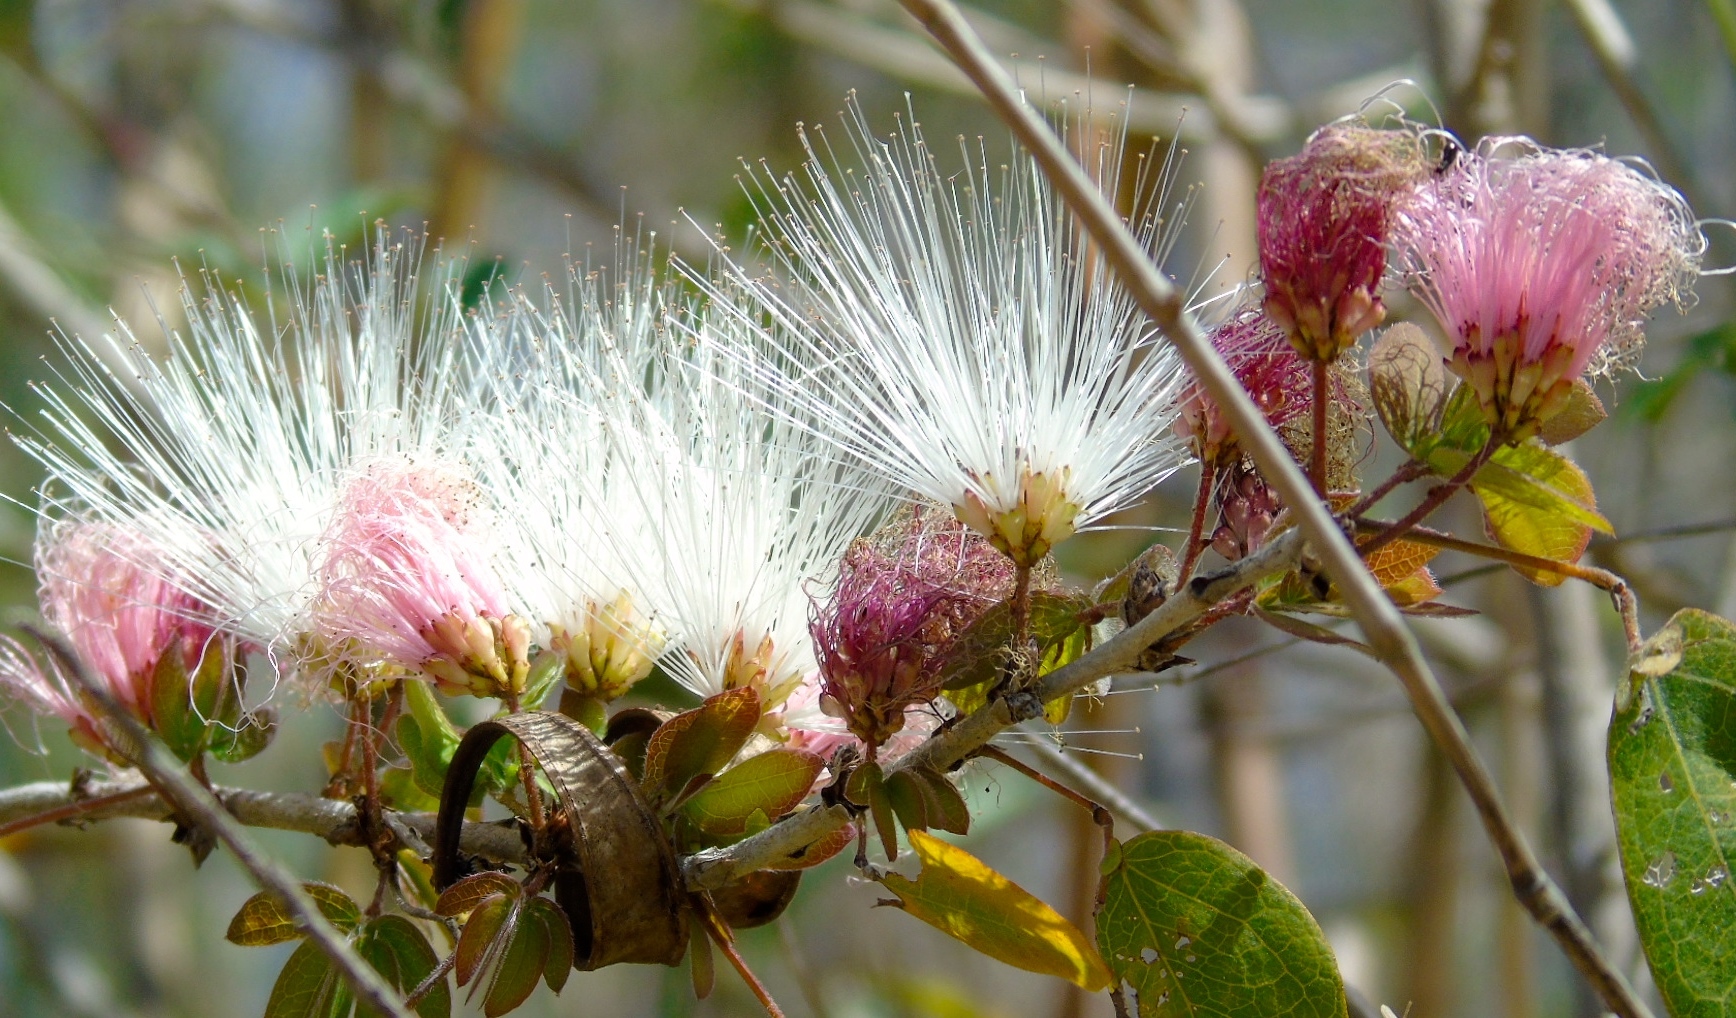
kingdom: Plantae
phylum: Tracheophyta
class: Magnoliopsida
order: Fabales
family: Fabaceae
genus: Calliandra
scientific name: Calliandra
